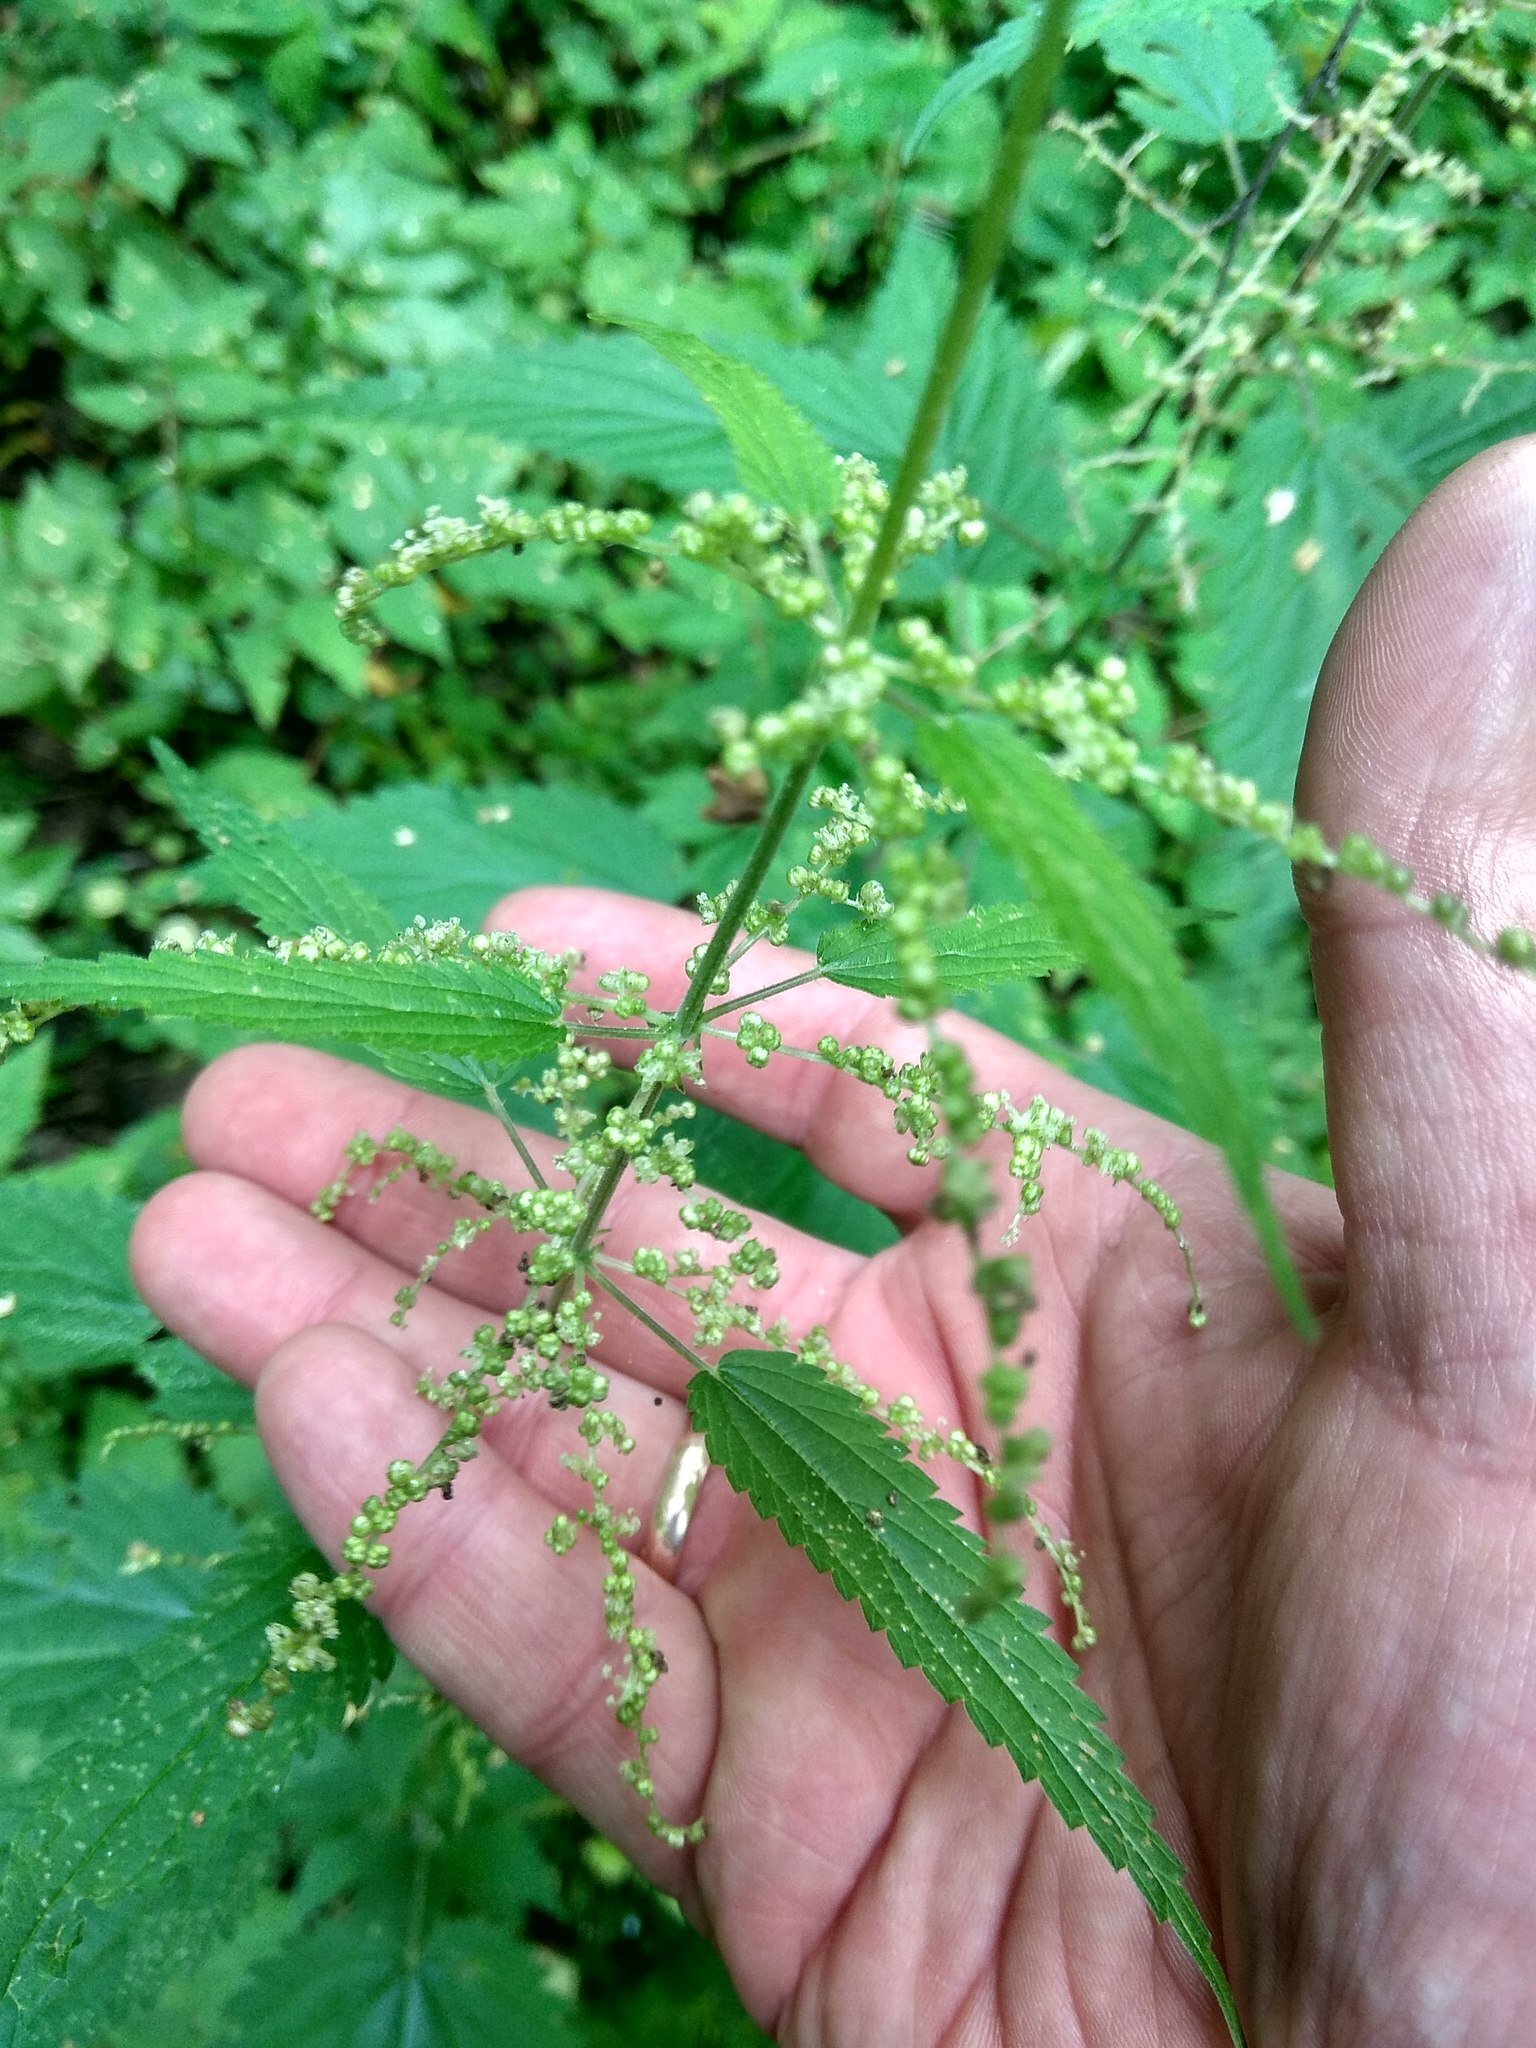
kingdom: Plantae
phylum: Tracheophyta
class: Magnoliopsida
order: Rosales
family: Urticaceae
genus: Urtica
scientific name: Urtica dioica
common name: Common nettle
